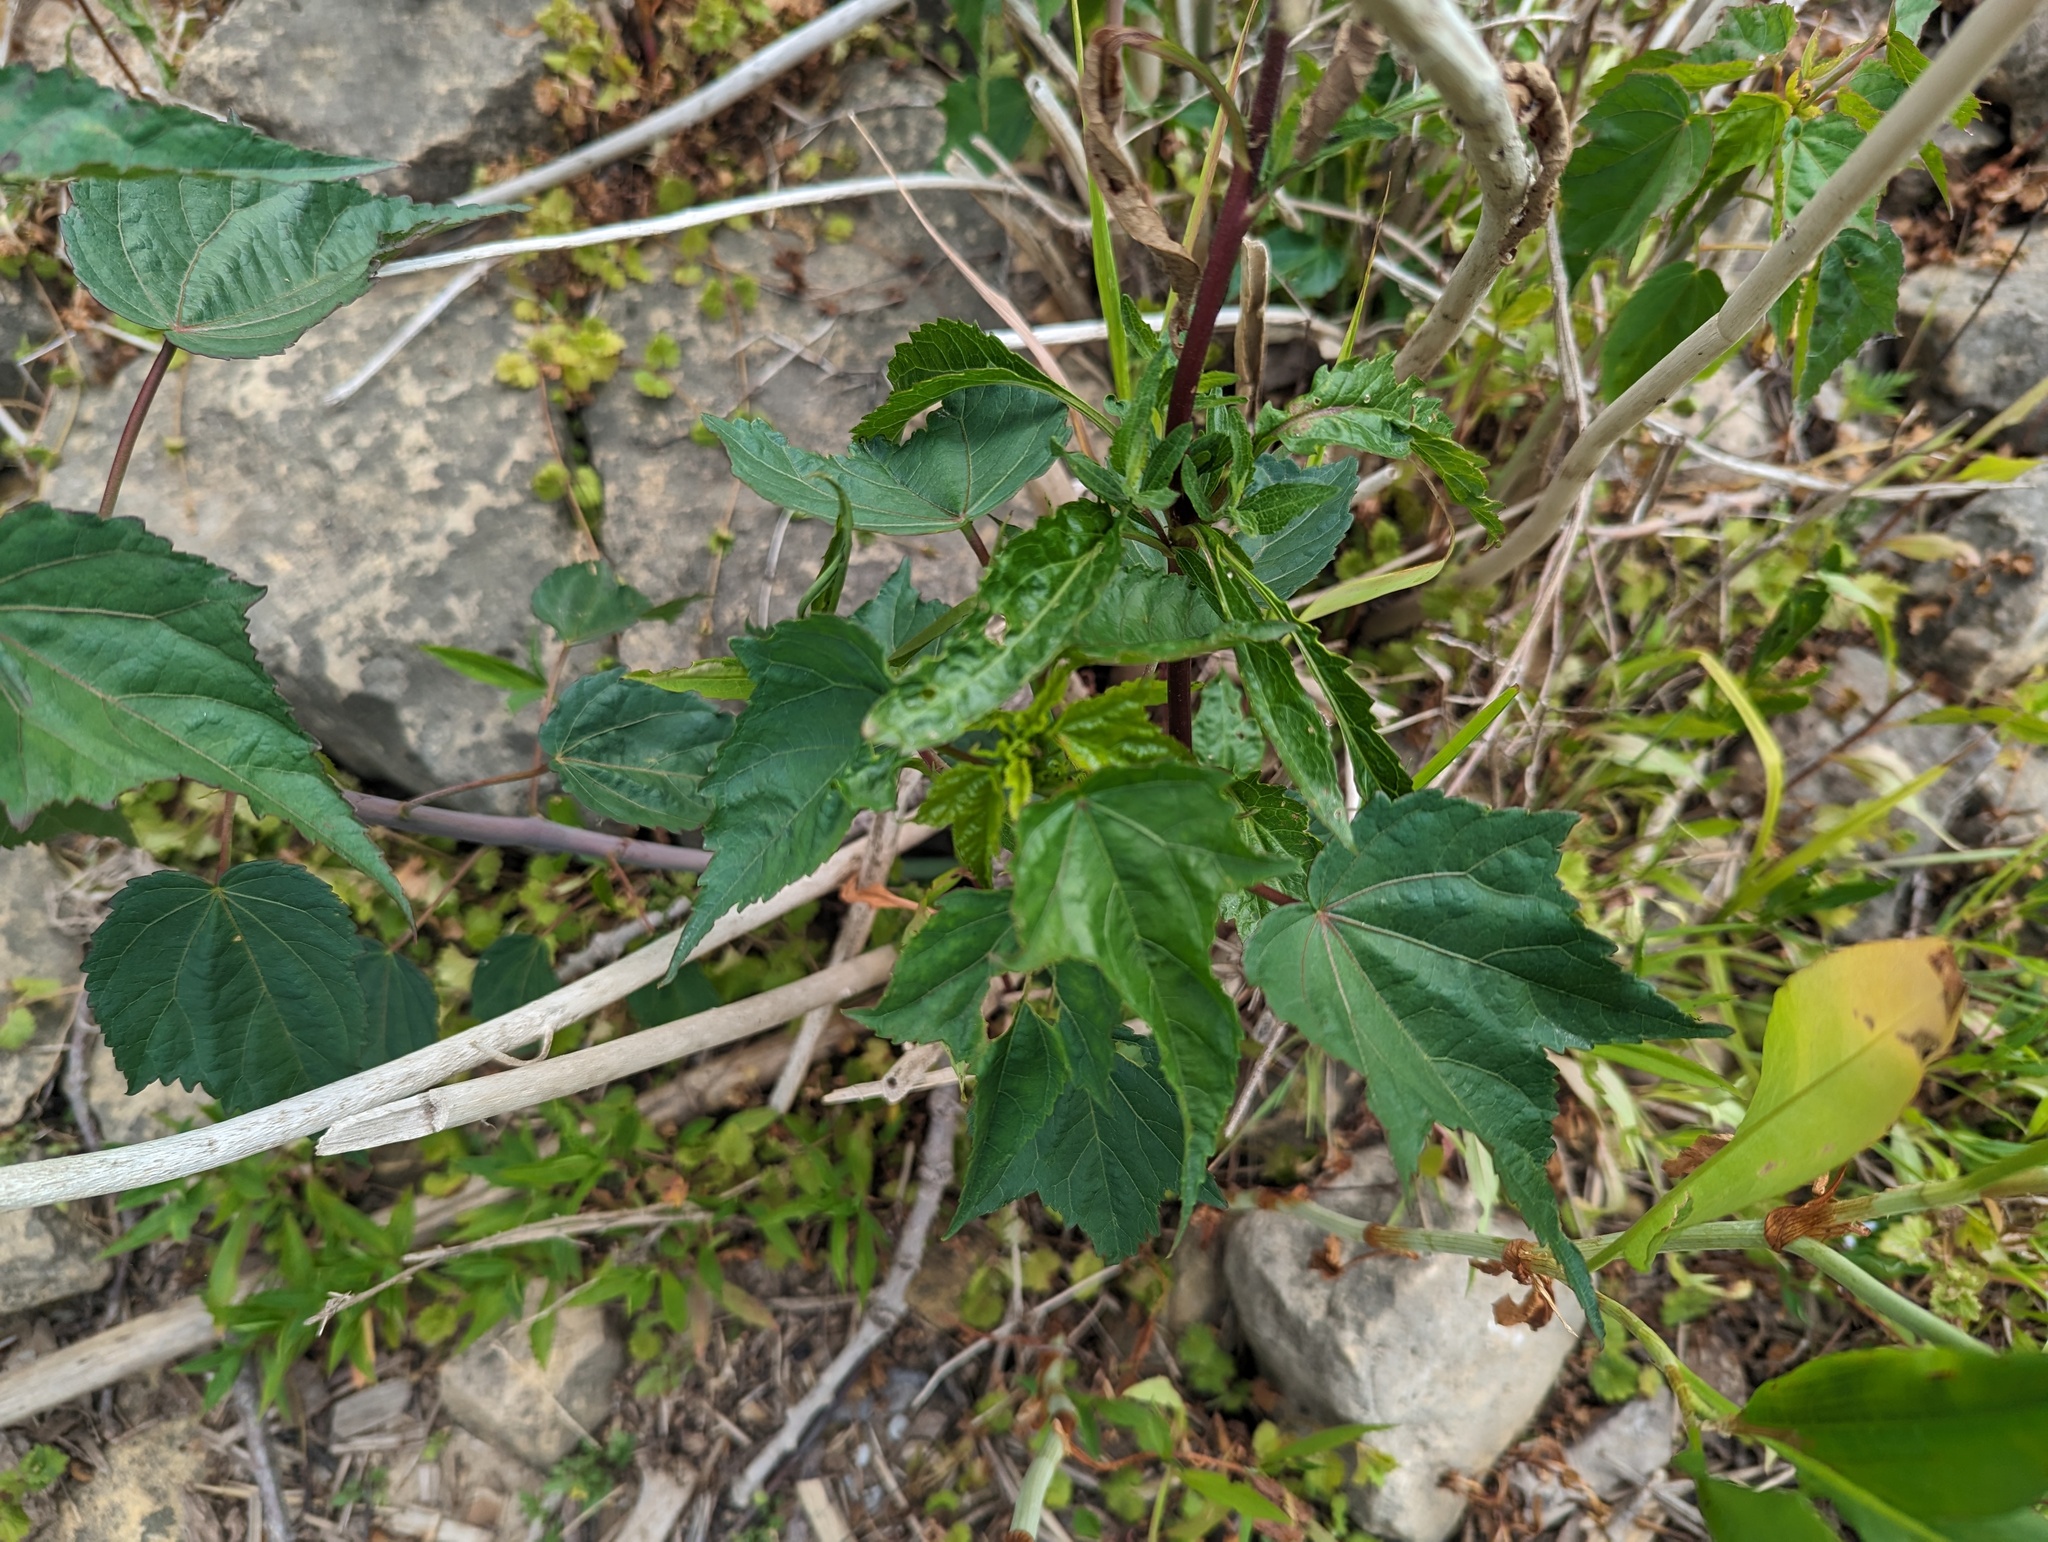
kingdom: Plantae
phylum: Tracheophyta
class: Magnoliopsida
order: Malvales
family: Malvaceae
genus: Hibiscus
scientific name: Hibiscus laevis
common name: Scarlet rose-mallow
